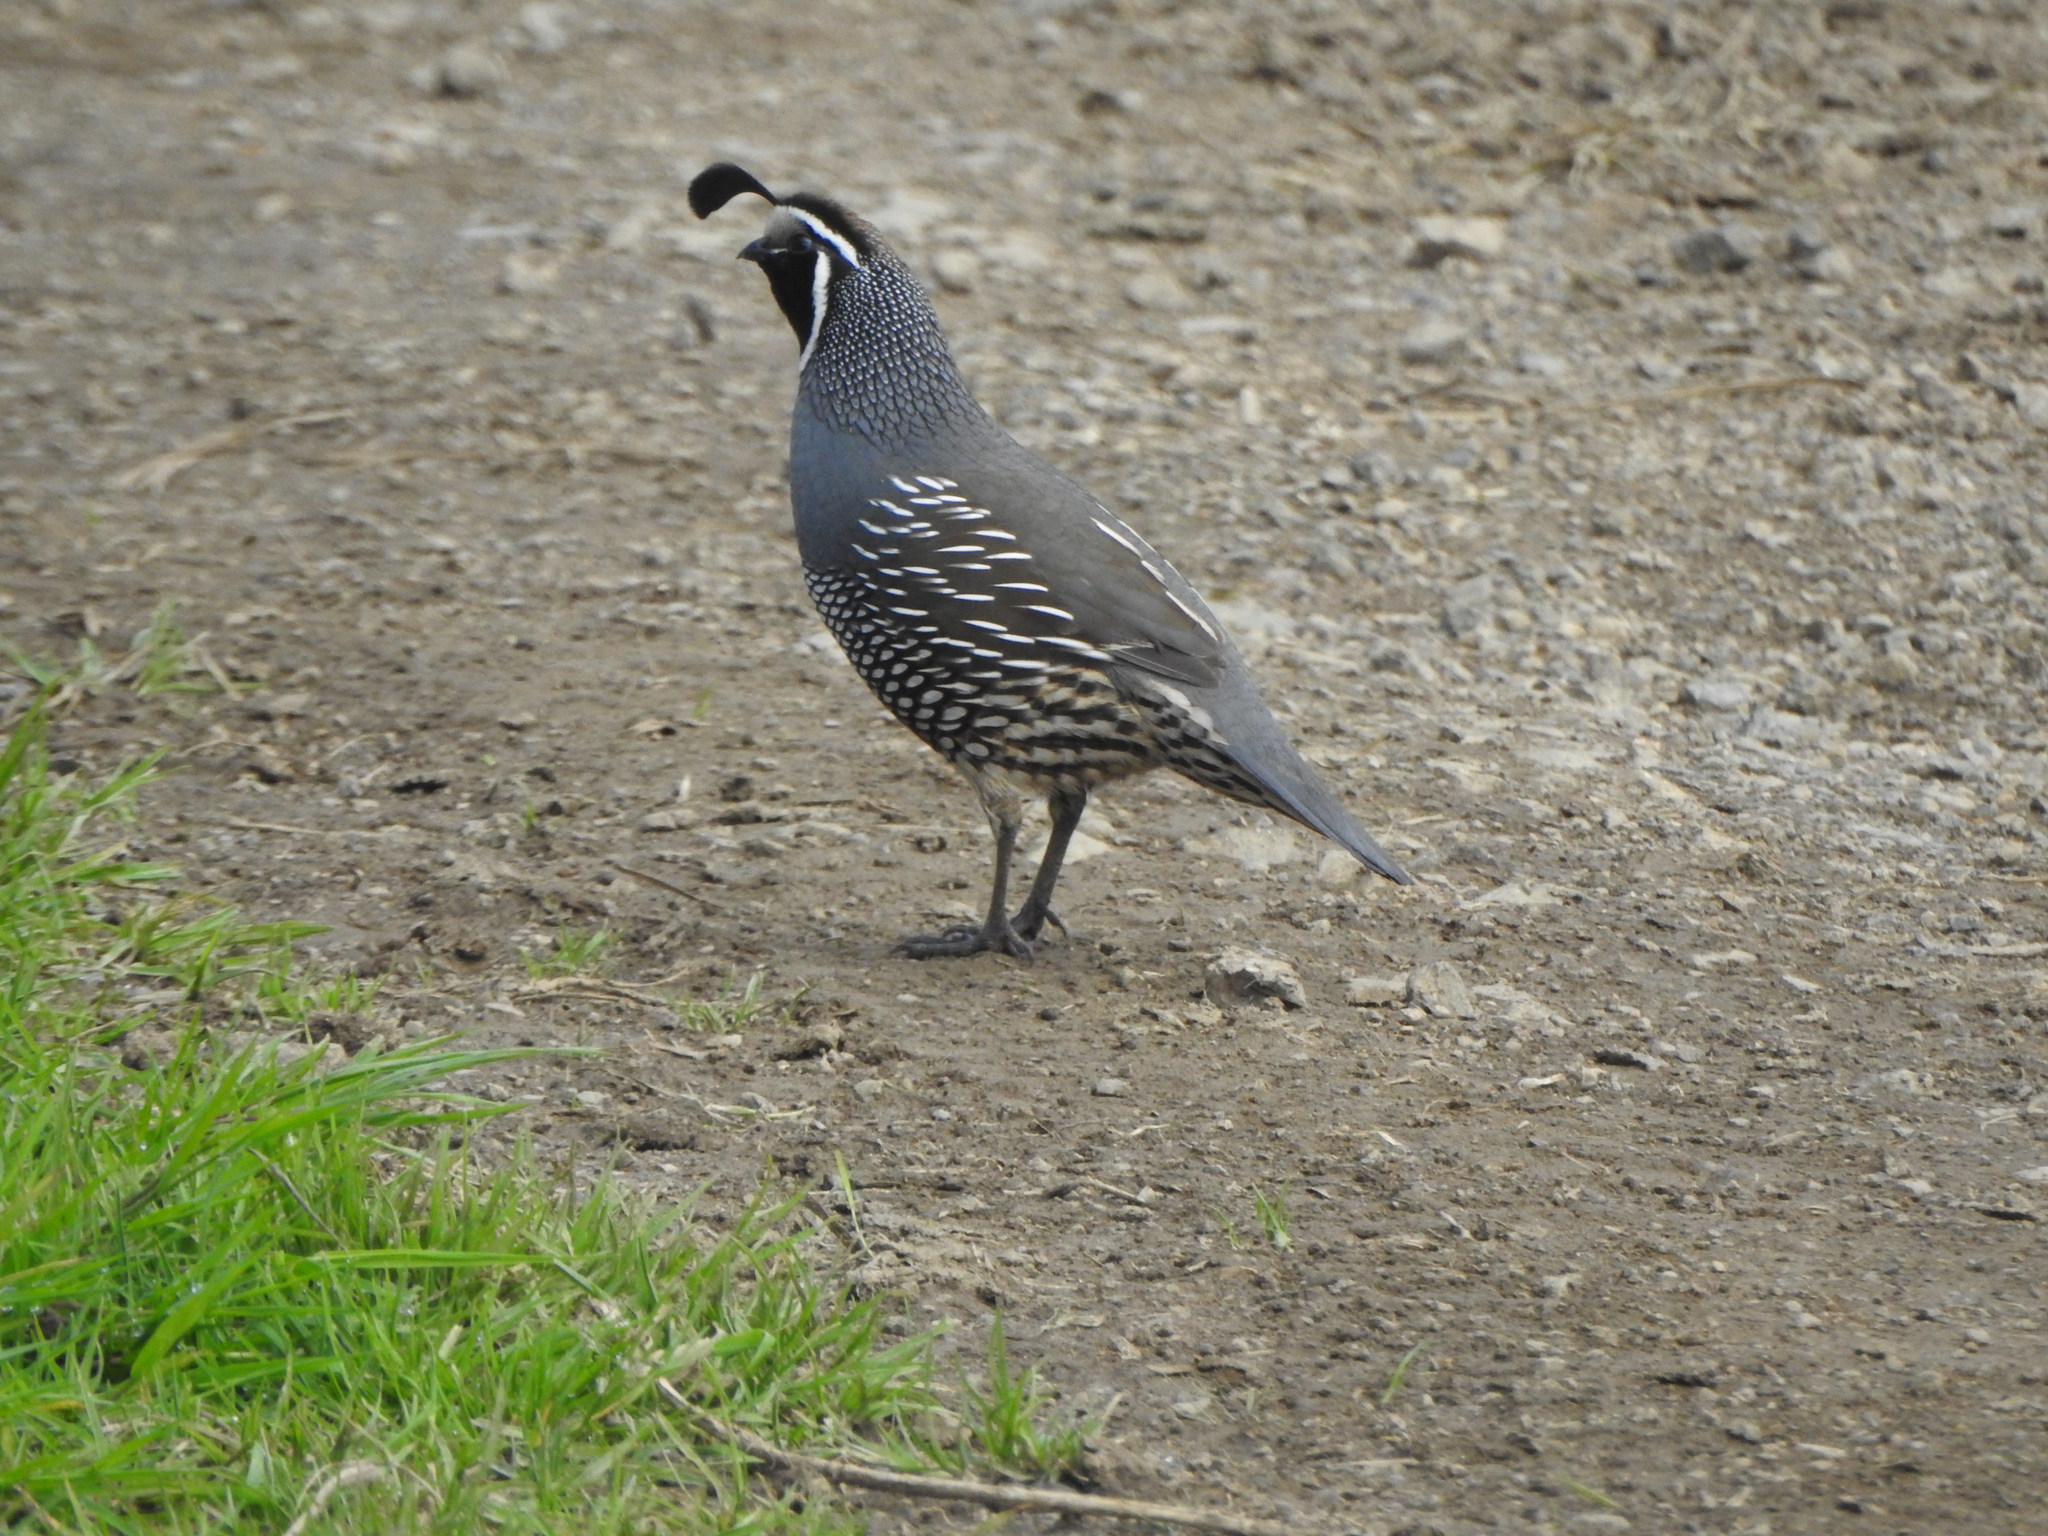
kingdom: Animalia
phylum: Chordata
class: Aves
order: Galliformes
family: Odontophoridae
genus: Callipepla
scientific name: Callipepla californica
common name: California quail
